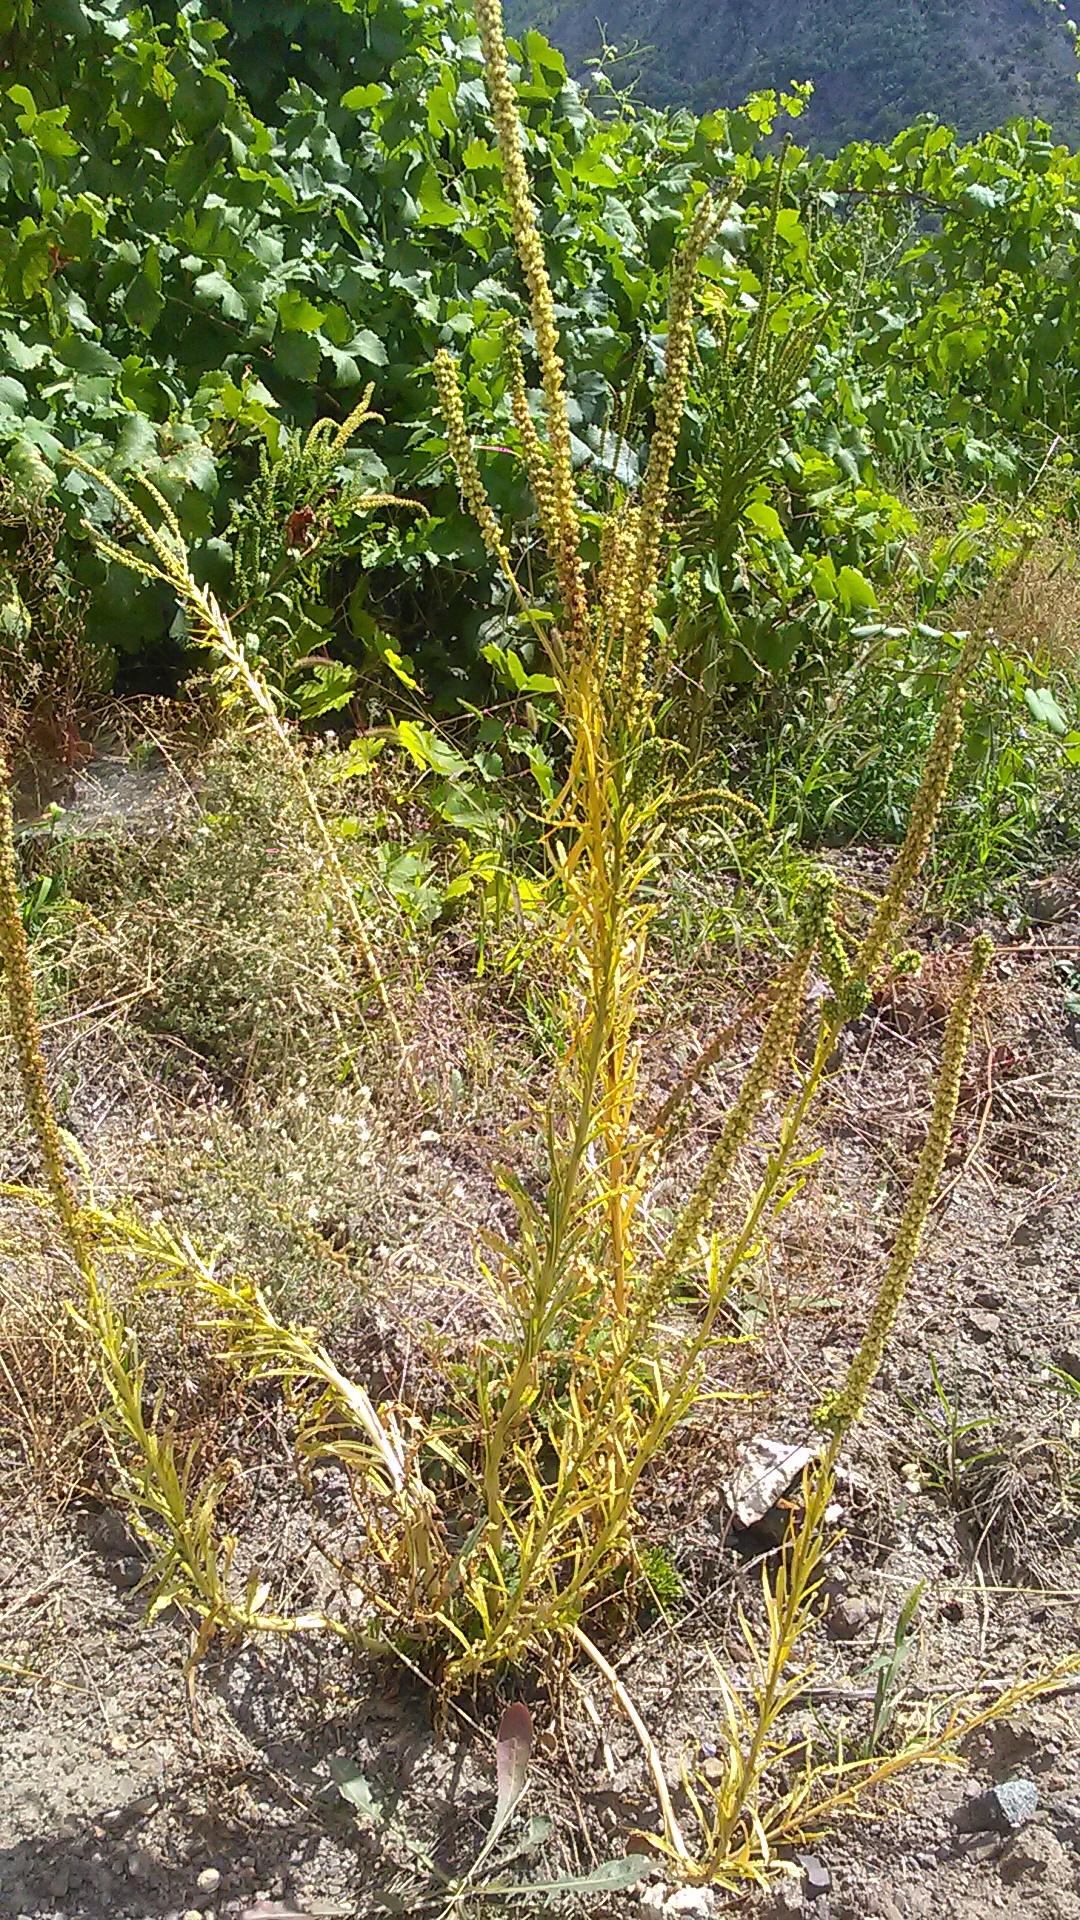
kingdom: Plantae
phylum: Tracheophyta
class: Magnoliopsida
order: Brassicales
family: Resedaceae
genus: Reseda
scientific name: Reseda luteola
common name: Weld
